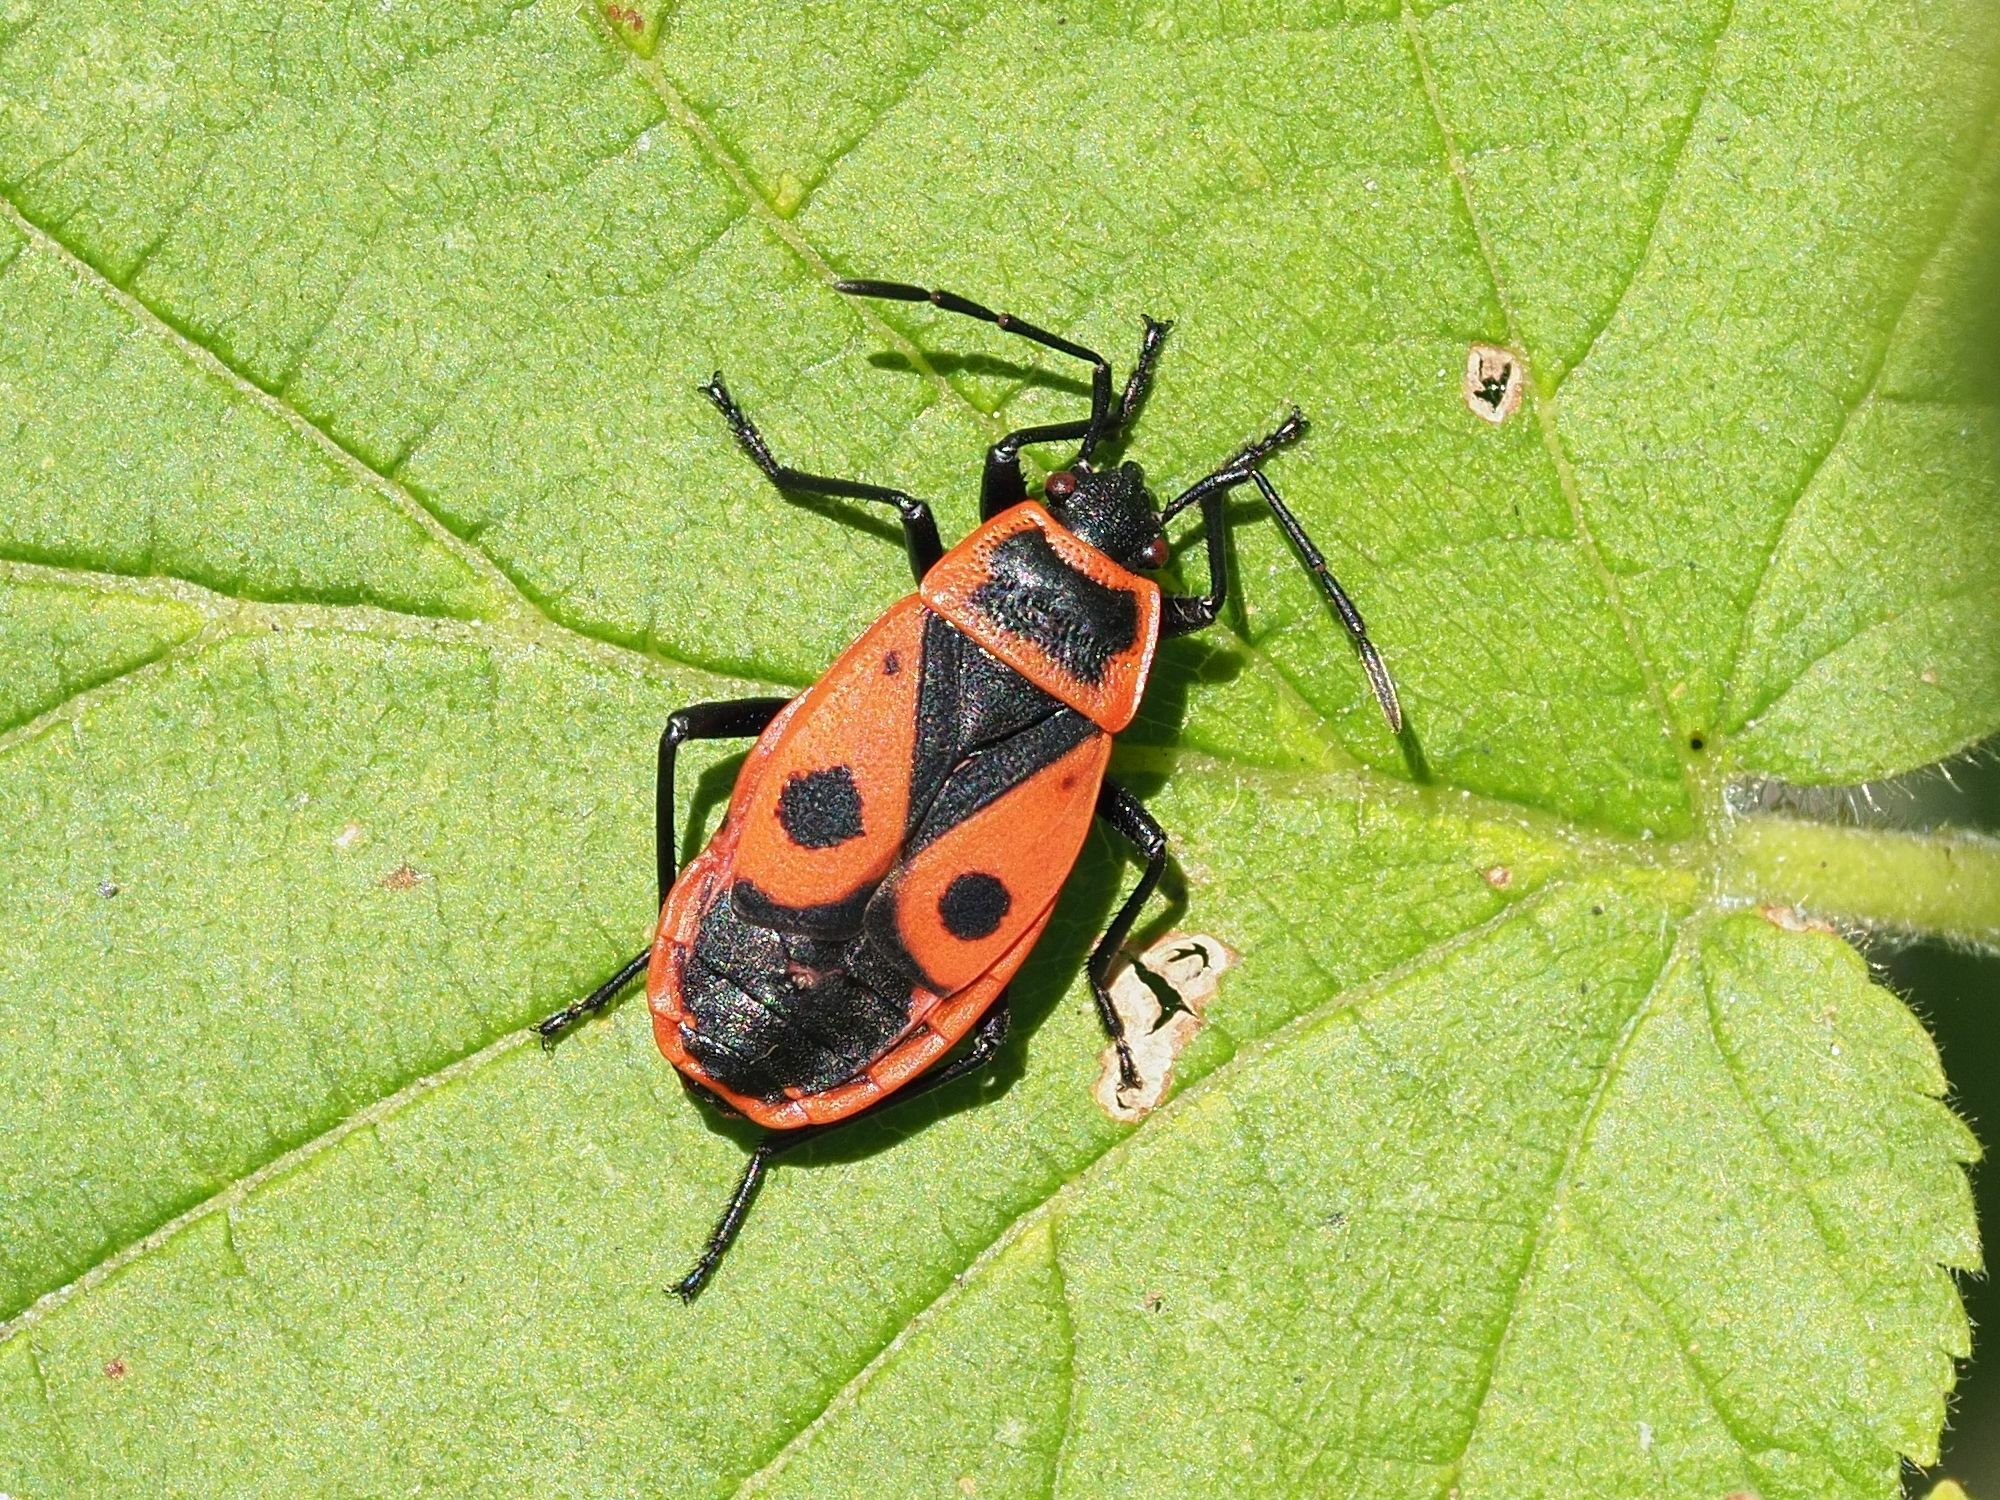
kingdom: Animalia
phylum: Arthropoda
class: Insecta
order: Hemiptera
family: Pyrrhocoridae
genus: Pyrrhocoris
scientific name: Pyrrhocoris apterus
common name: Firebug
